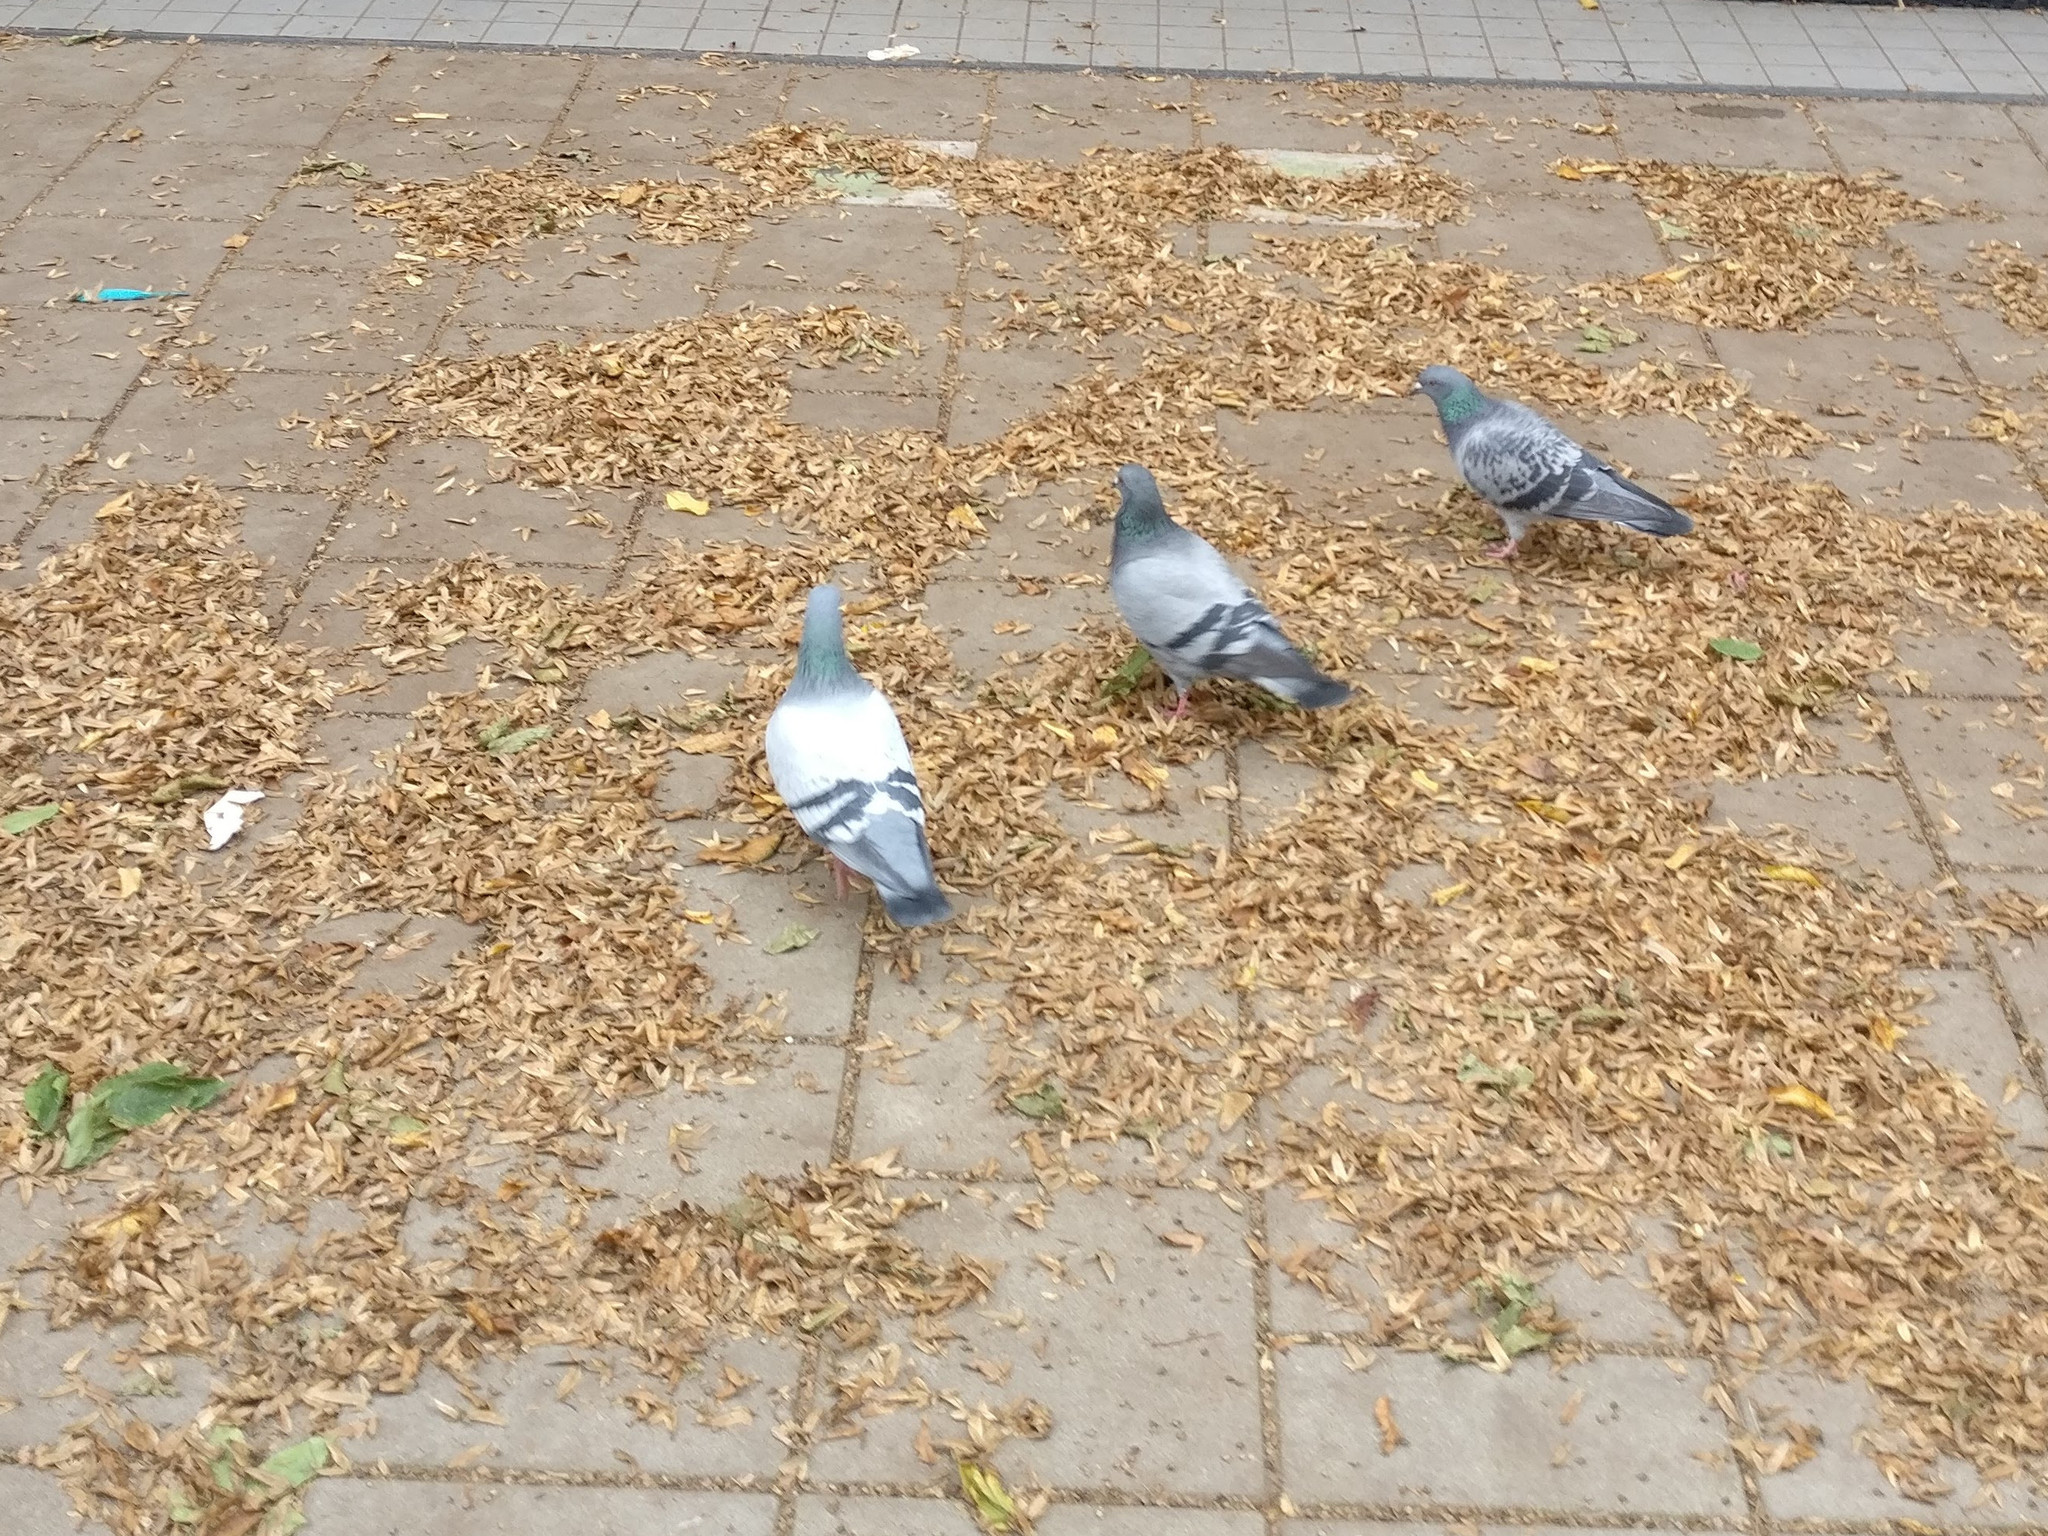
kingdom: Animalia
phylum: Chordata
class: Aves
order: Columbiformes
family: Columbidae
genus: Columba
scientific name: Columba livia
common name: Rock pigeon
